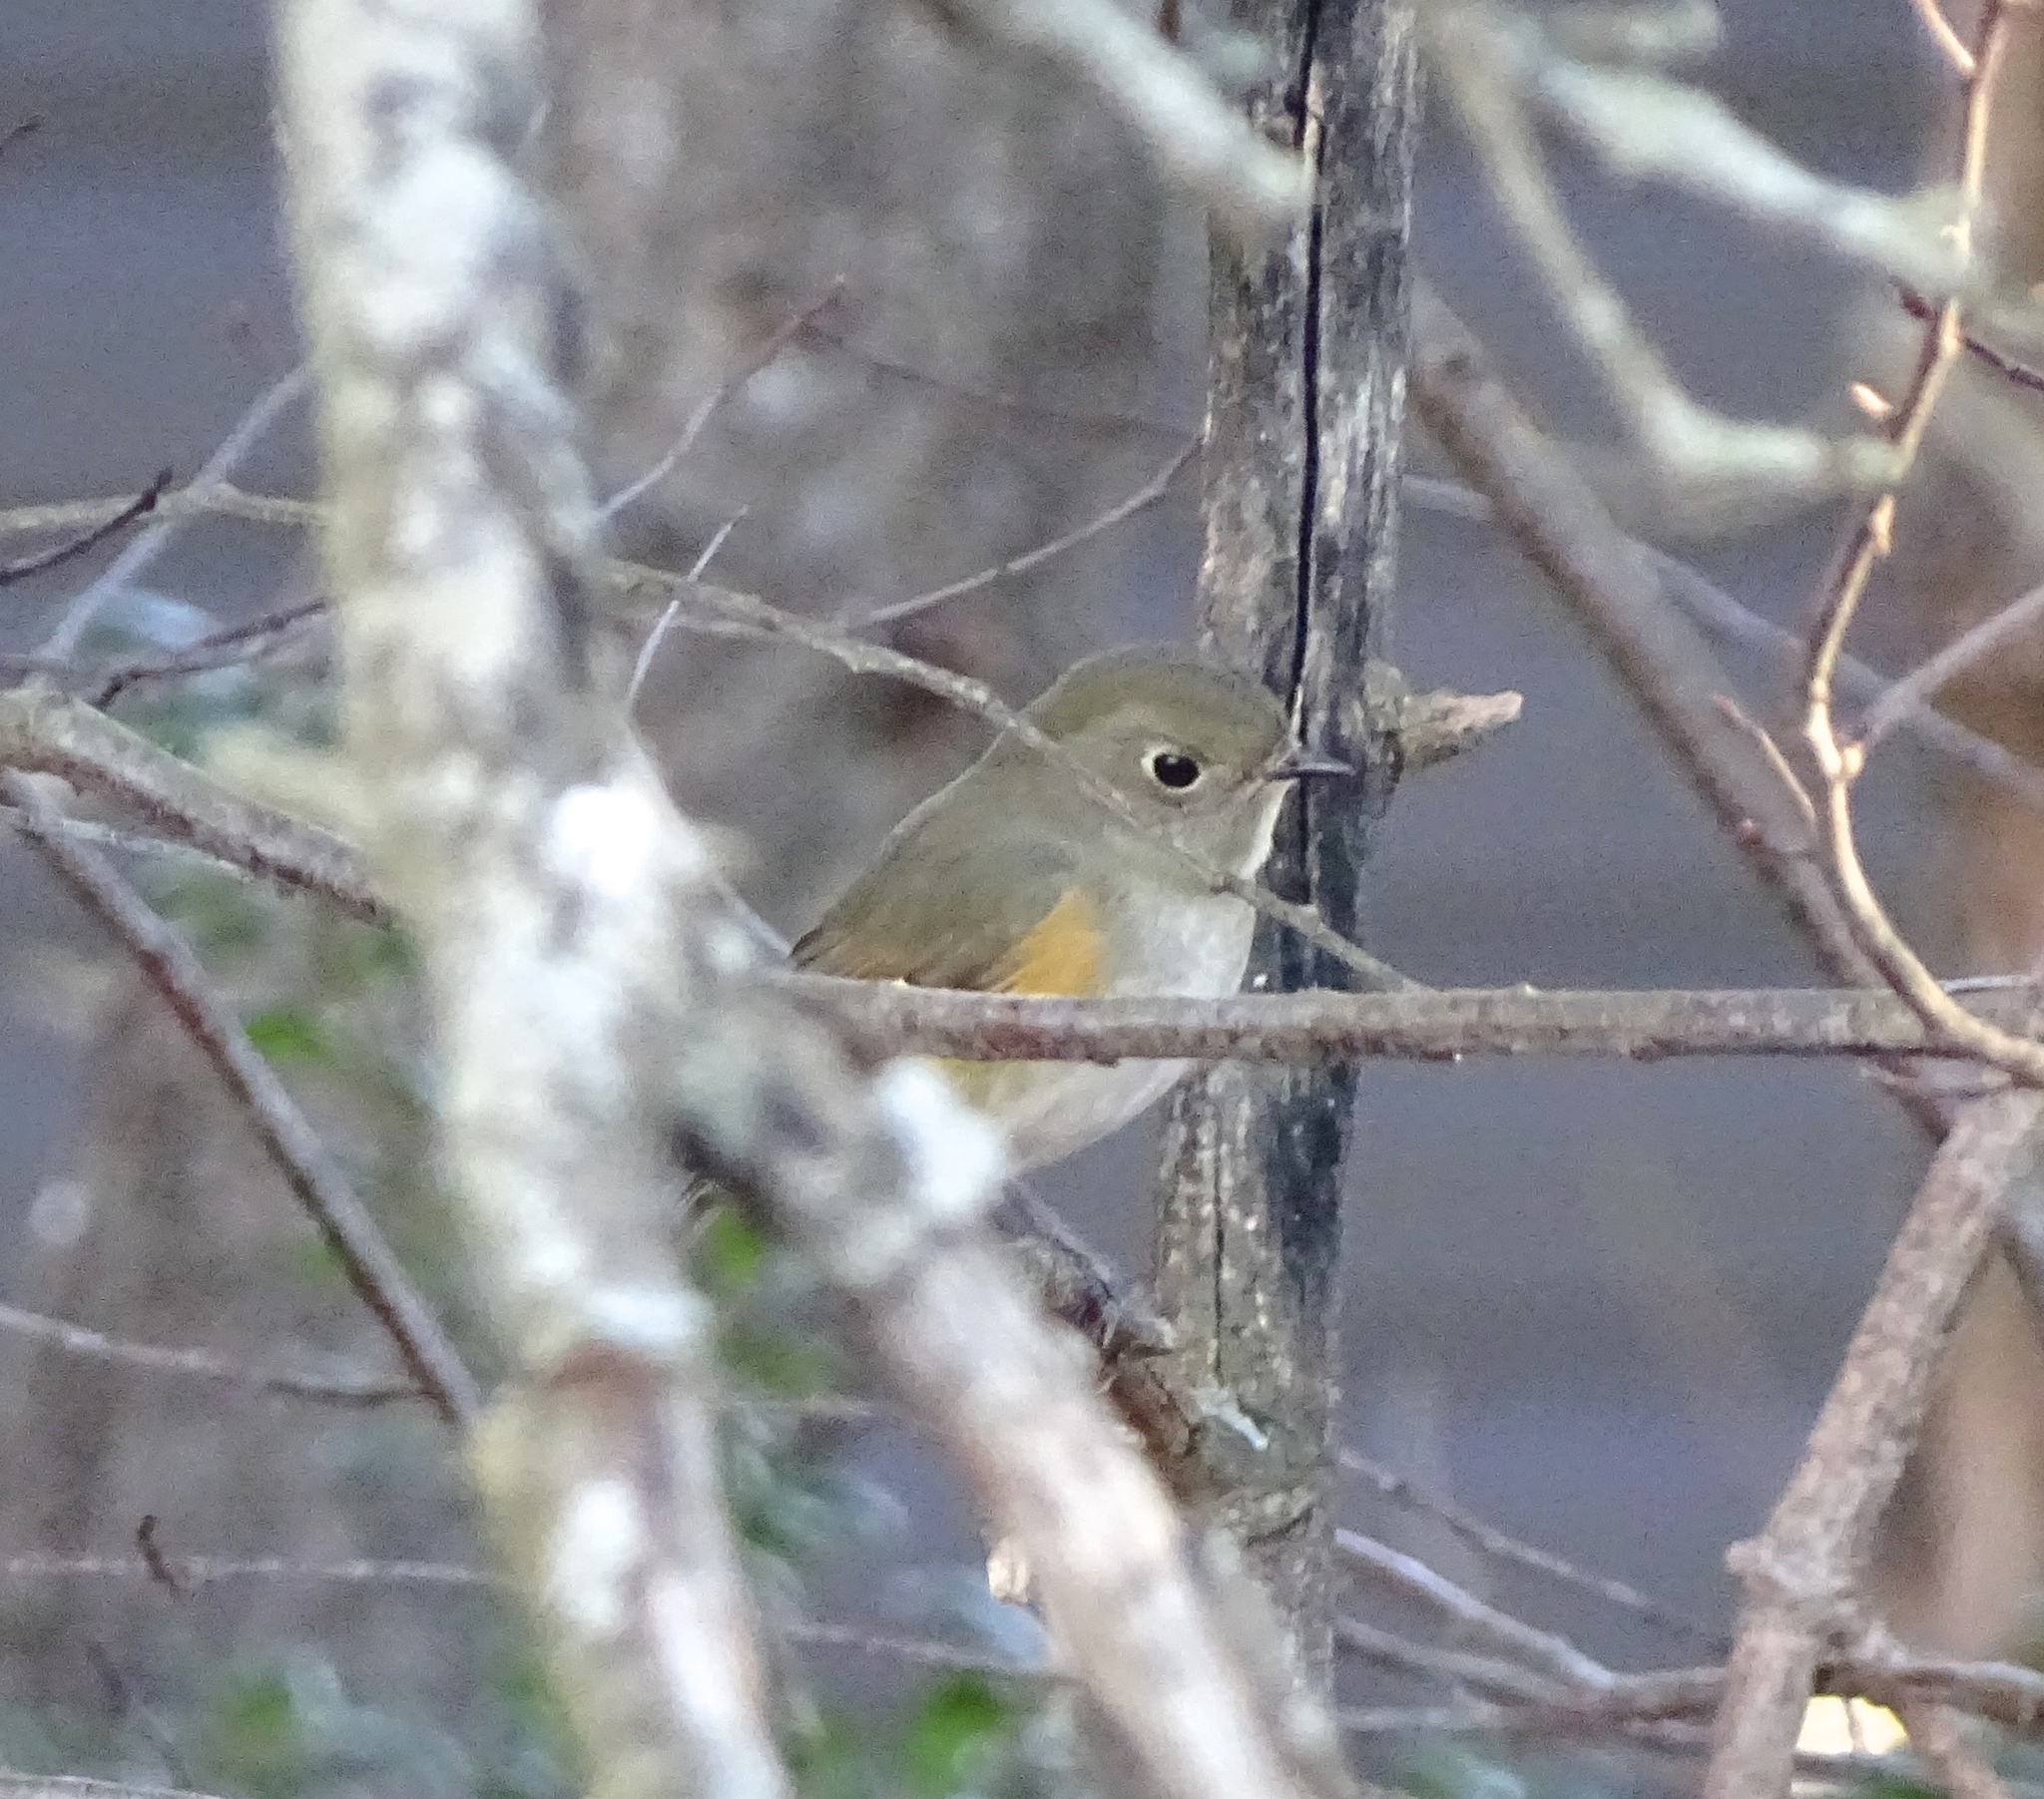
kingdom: Animalia
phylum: Chordata
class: Aves
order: Passeriformes
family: Muscicapidae
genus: Tarsiger
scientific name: Tarsiger cyanurus
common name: Red-flanked bluetail
